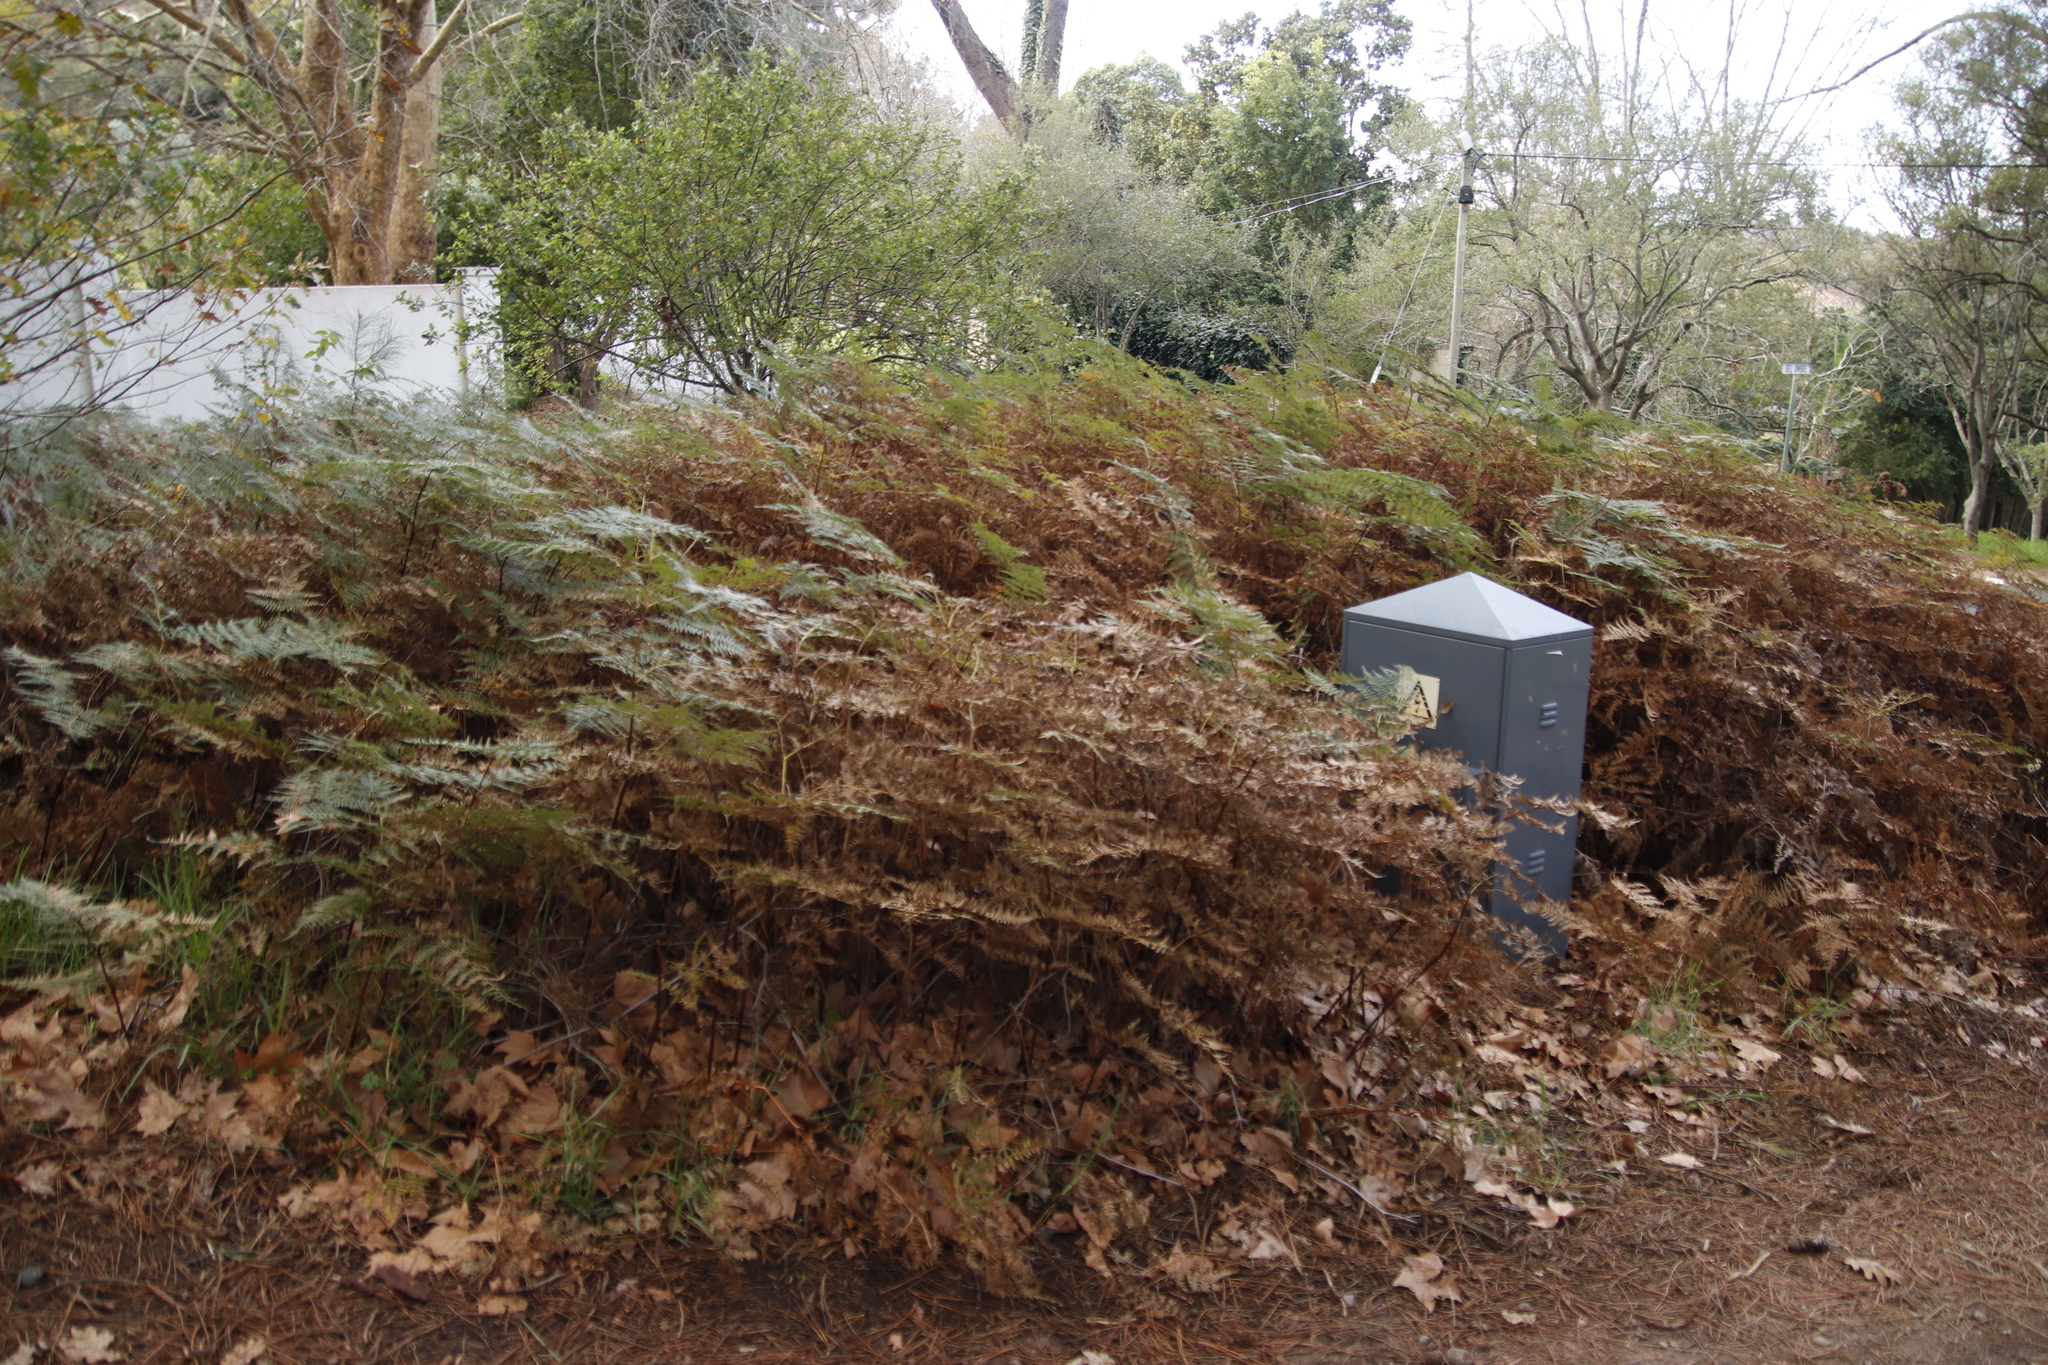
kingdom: Plantae
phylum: Tracheophyta
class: Polypodiopsida
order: Polypodiales
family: Dennstaedtiaceae
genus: Pteridium
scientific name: Pteridium aquilinum
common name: Bracken
